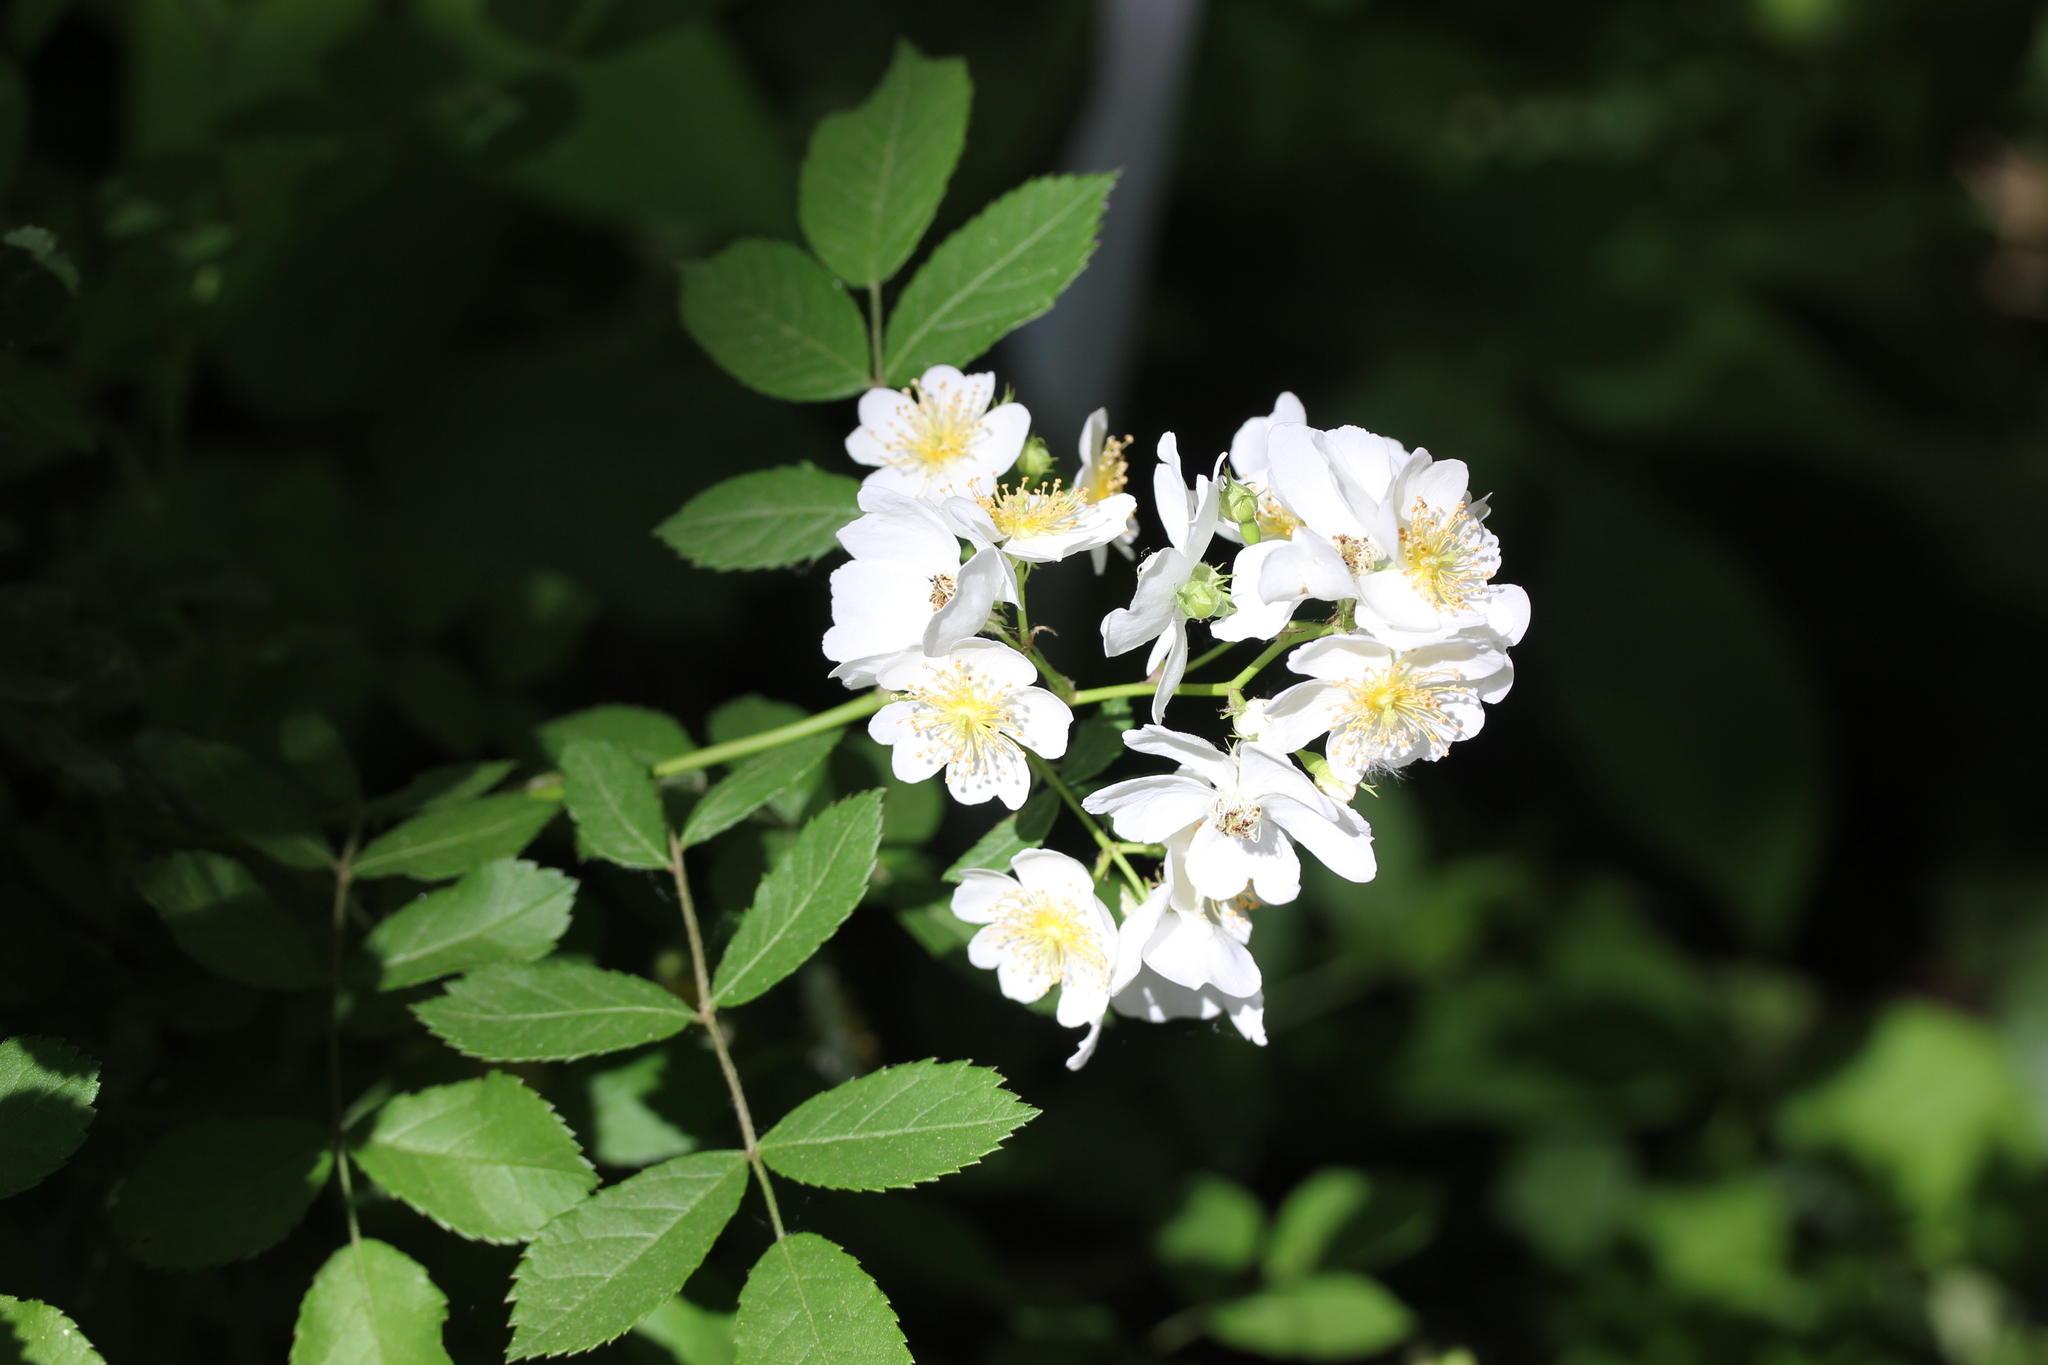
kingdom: Plantae
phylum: Tracheophyta
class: Magnoliopsida
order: Rosales
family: Rosaceae
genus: Rosa
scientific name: Rosa multiflora
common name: Multiflora rose
